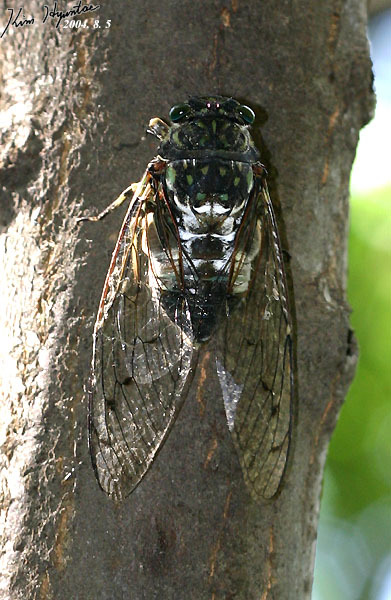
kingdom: Animalia
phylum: Arthropoda
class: Insecta
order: Hemiptera
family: Cicadidae
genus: Hyalessa
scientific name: Hyalessa maculaticollis
